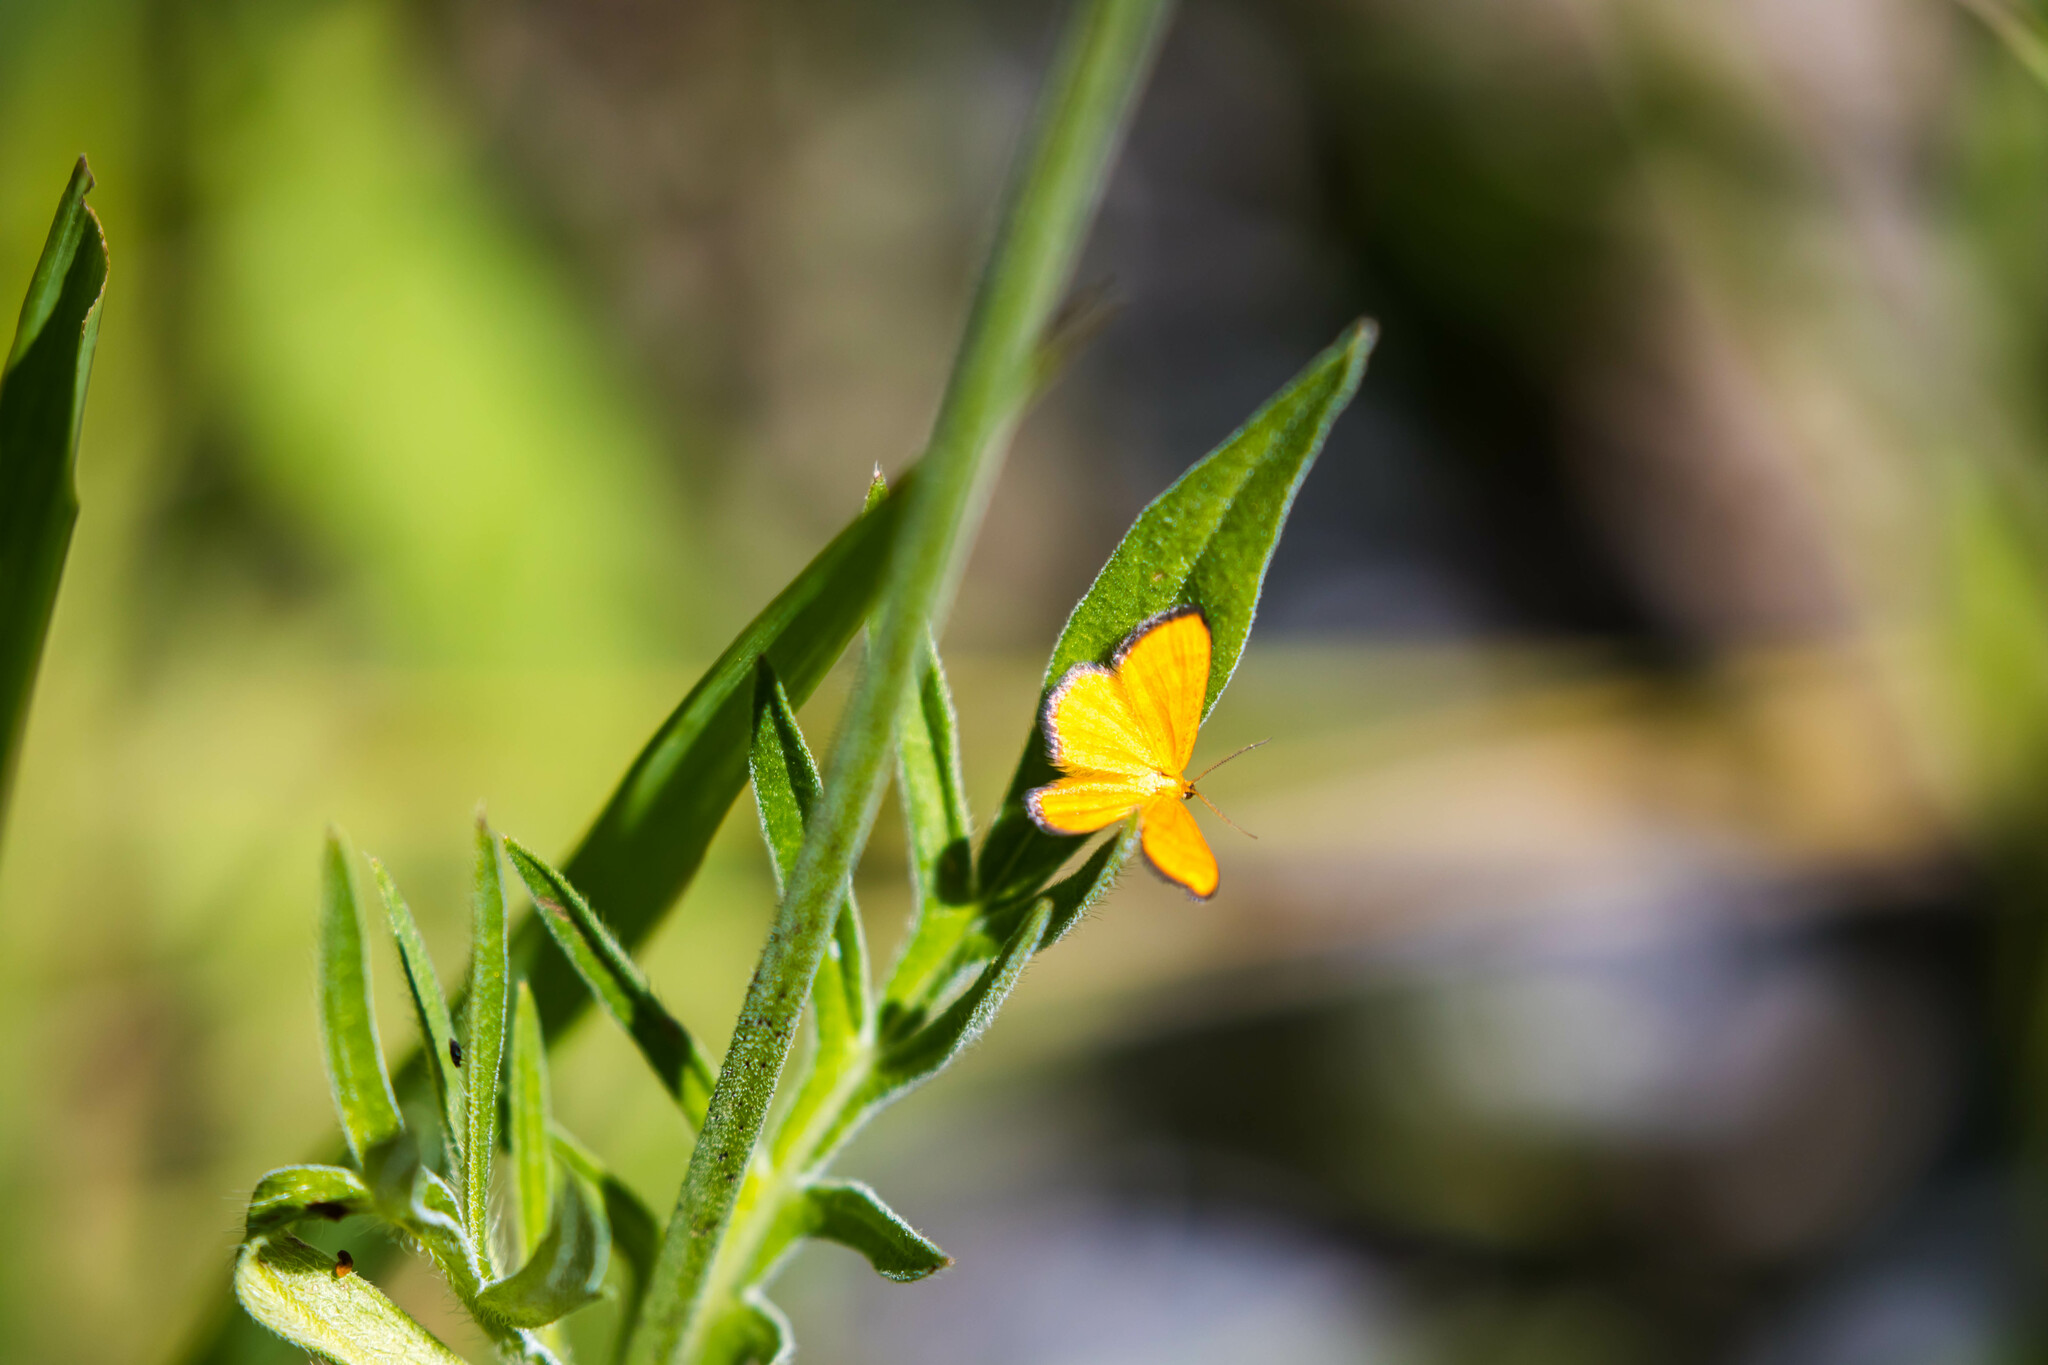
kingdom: Animalia
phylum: Arthropoda
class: Insecta
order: Lepidoptera
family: Geometridae
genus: Idaea
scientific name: Idaea flaveolaria
